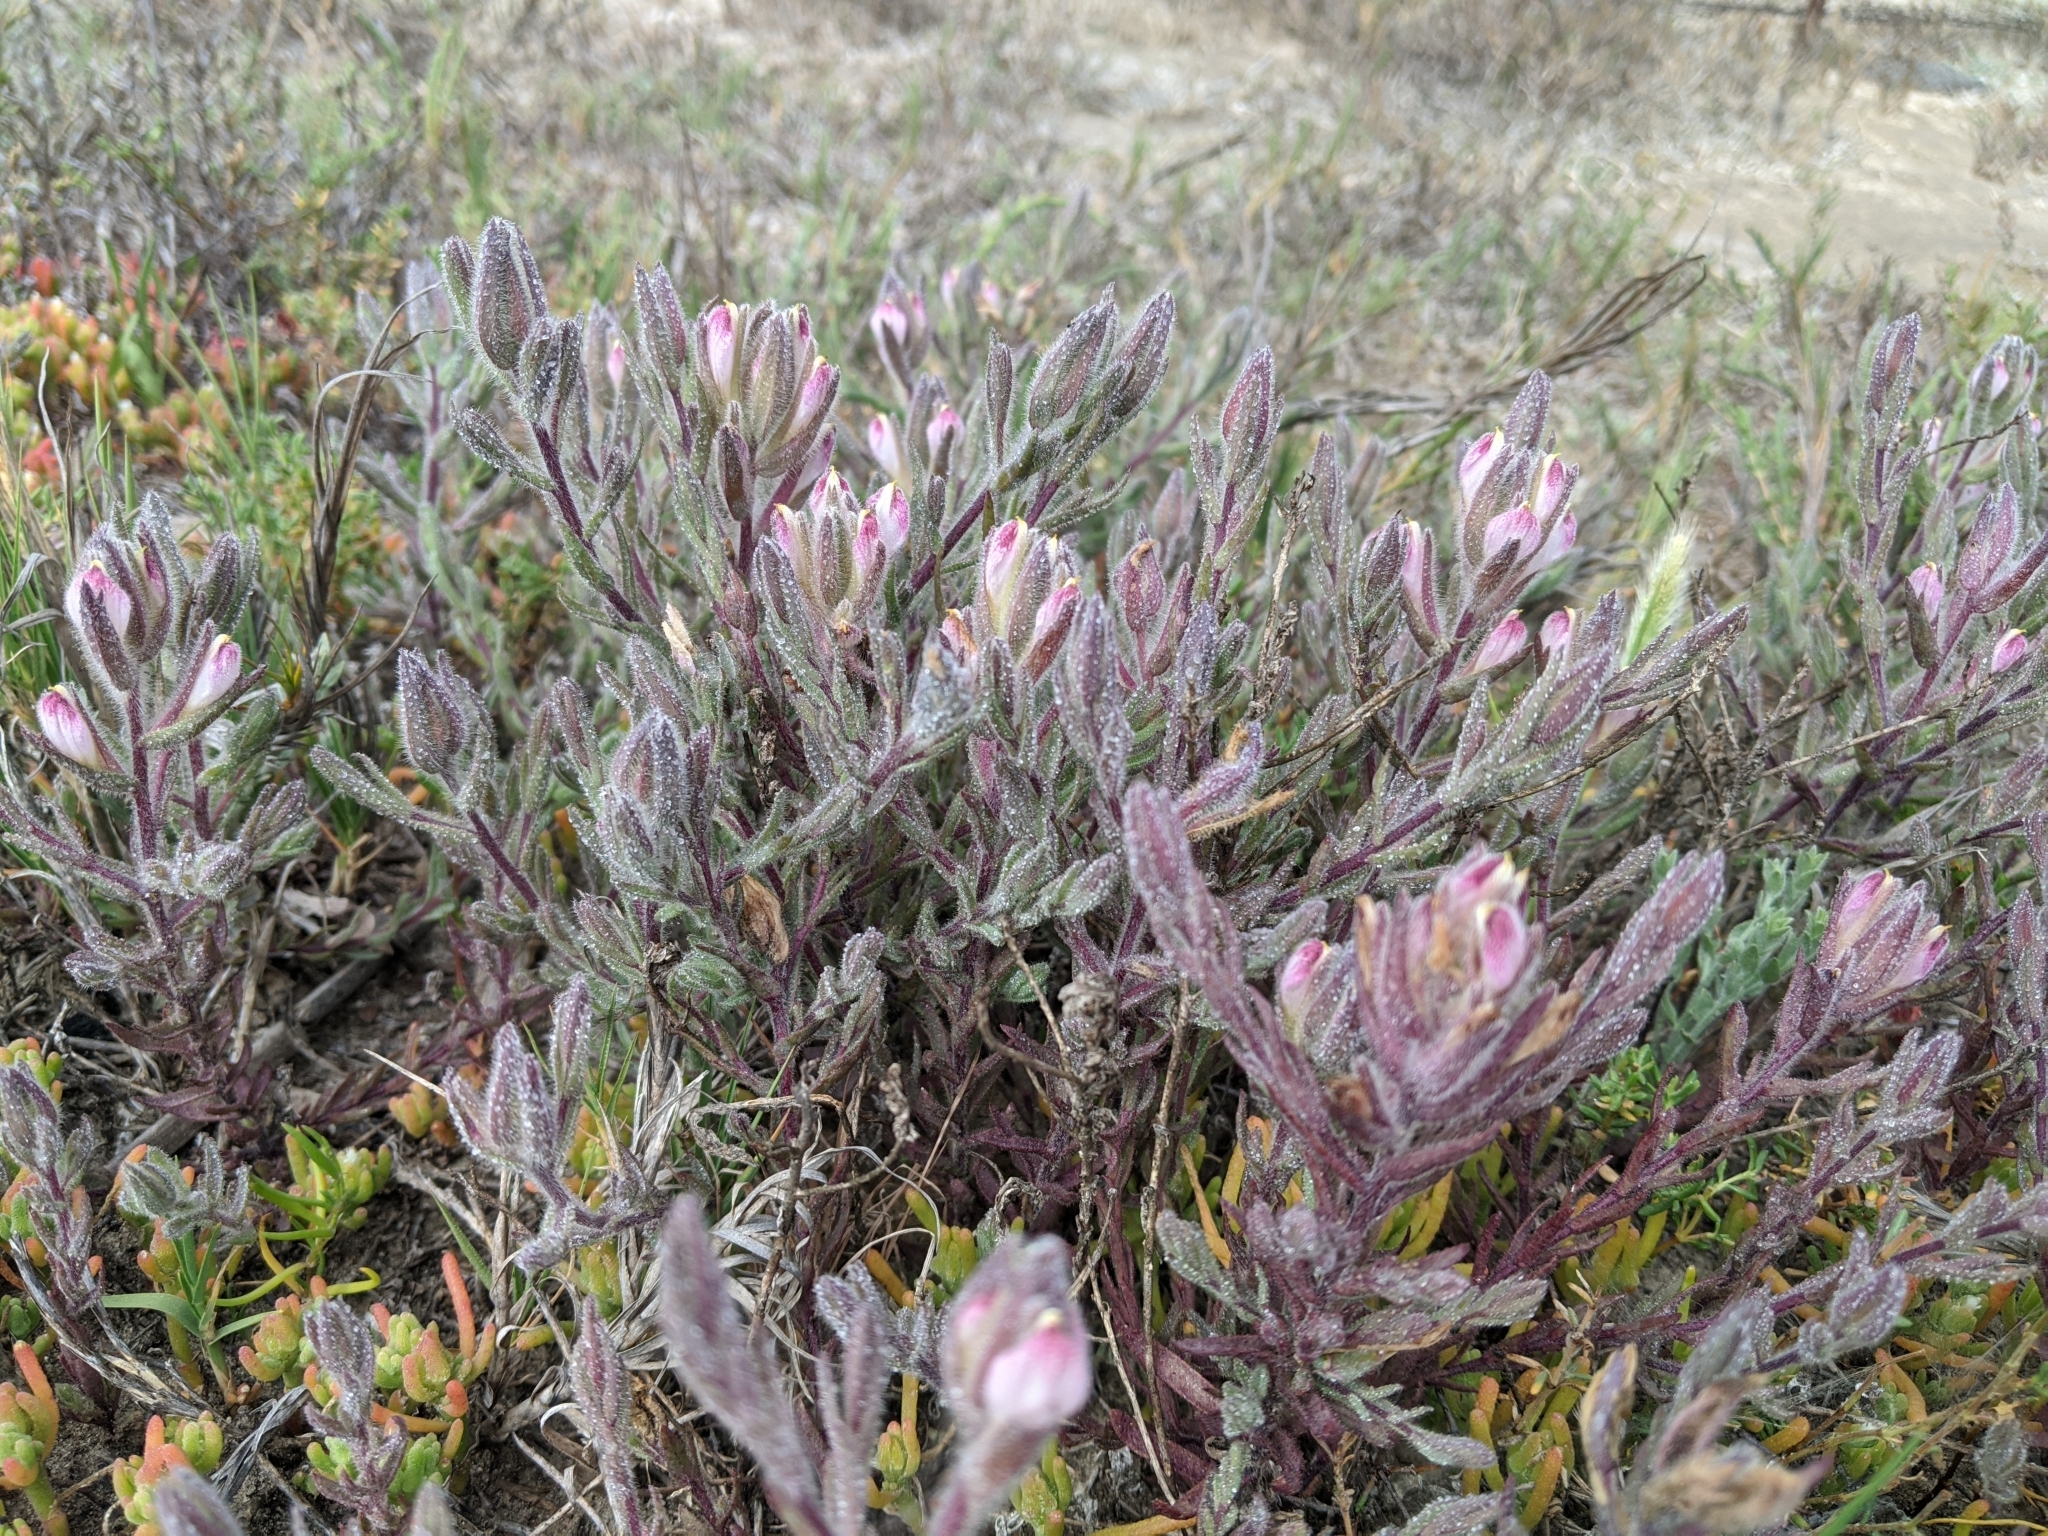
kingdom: Plantae
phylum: Tracheophyta
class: Magnoliopsida
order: Lamiales
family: Orobanchaceae
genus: Chloropyron
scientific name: Chloropyron maritimum
